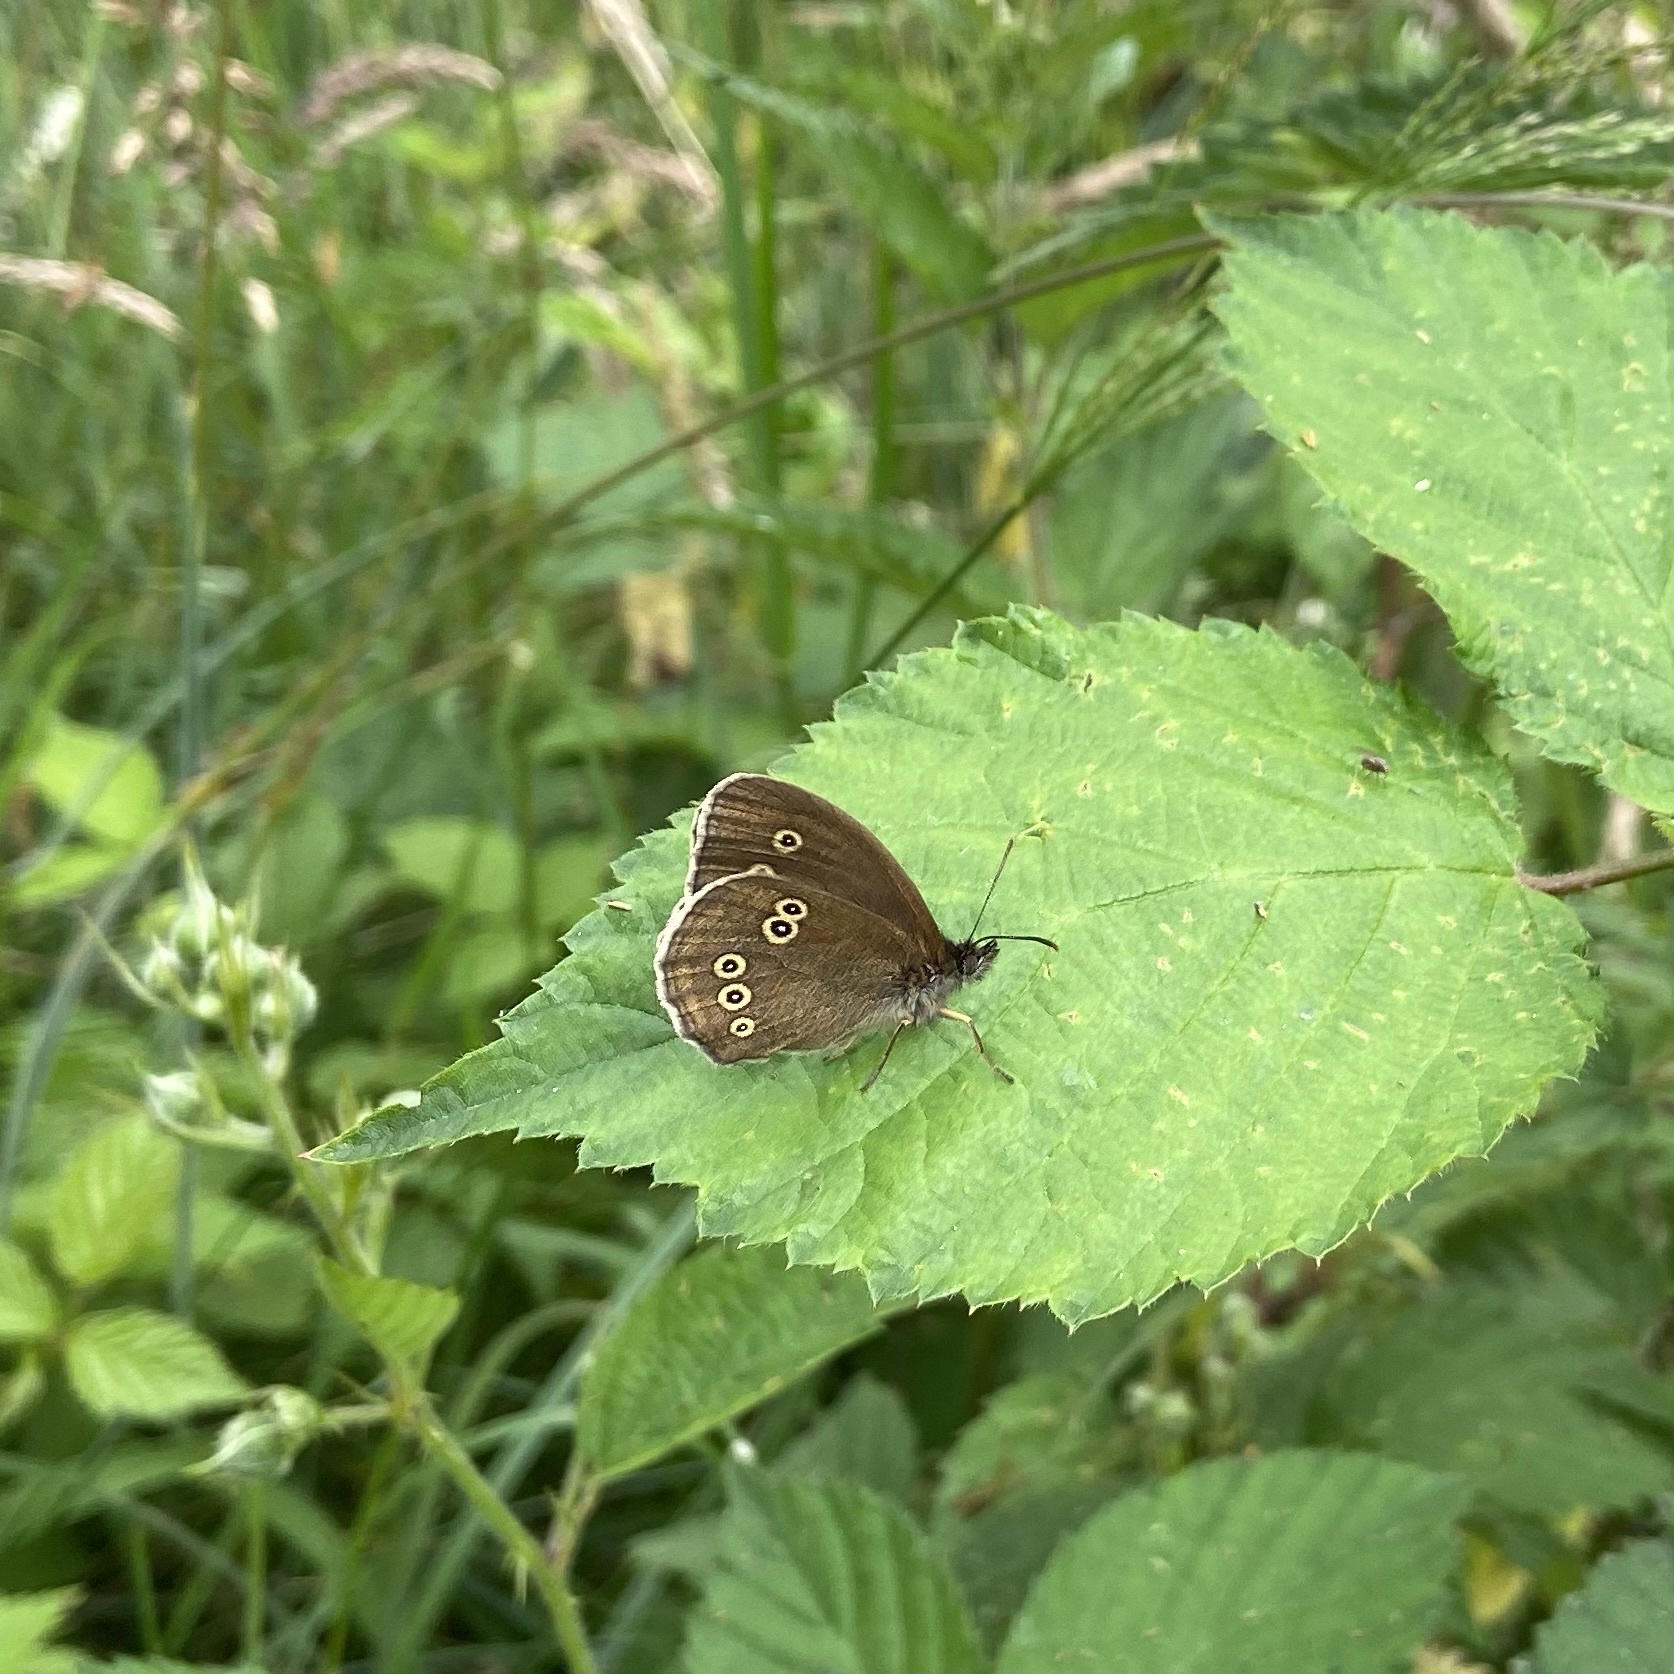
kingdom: Animalia
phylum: Arthropoda
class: Insecta
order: Lepidoptera
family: Nymphalidae
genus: Aphantopus
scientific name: Aphantopus hyperantus
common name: Ringlet
